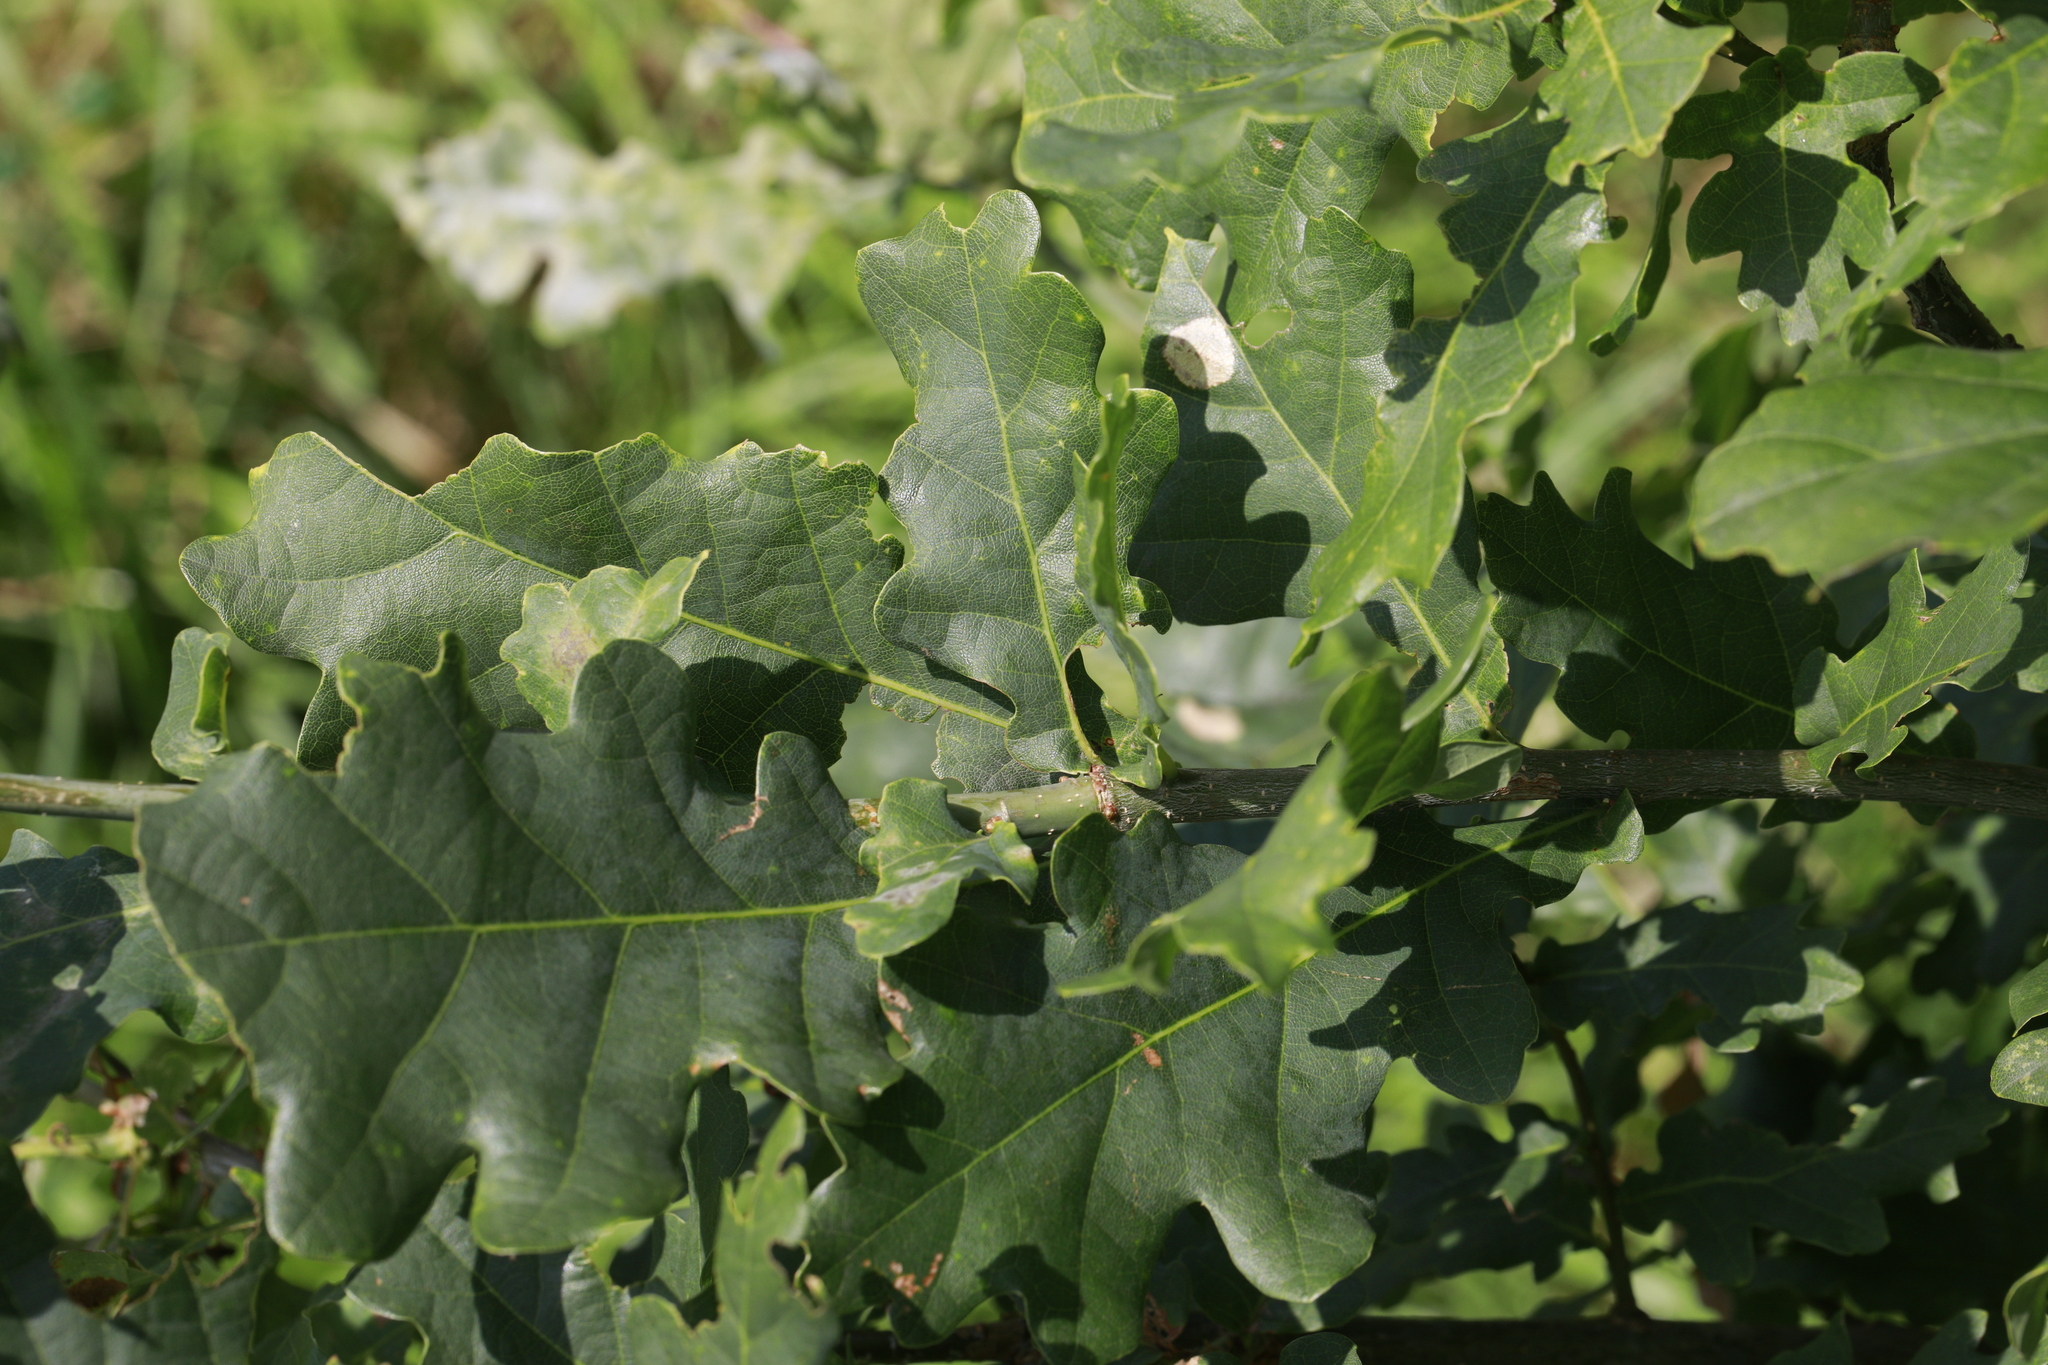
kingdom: Plantae
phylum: Tracheophyta
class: Magnoliopsida
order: Fagales
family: Fagaceae
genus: Quercus
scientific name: Quercus robur
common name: Pedunculate oak
